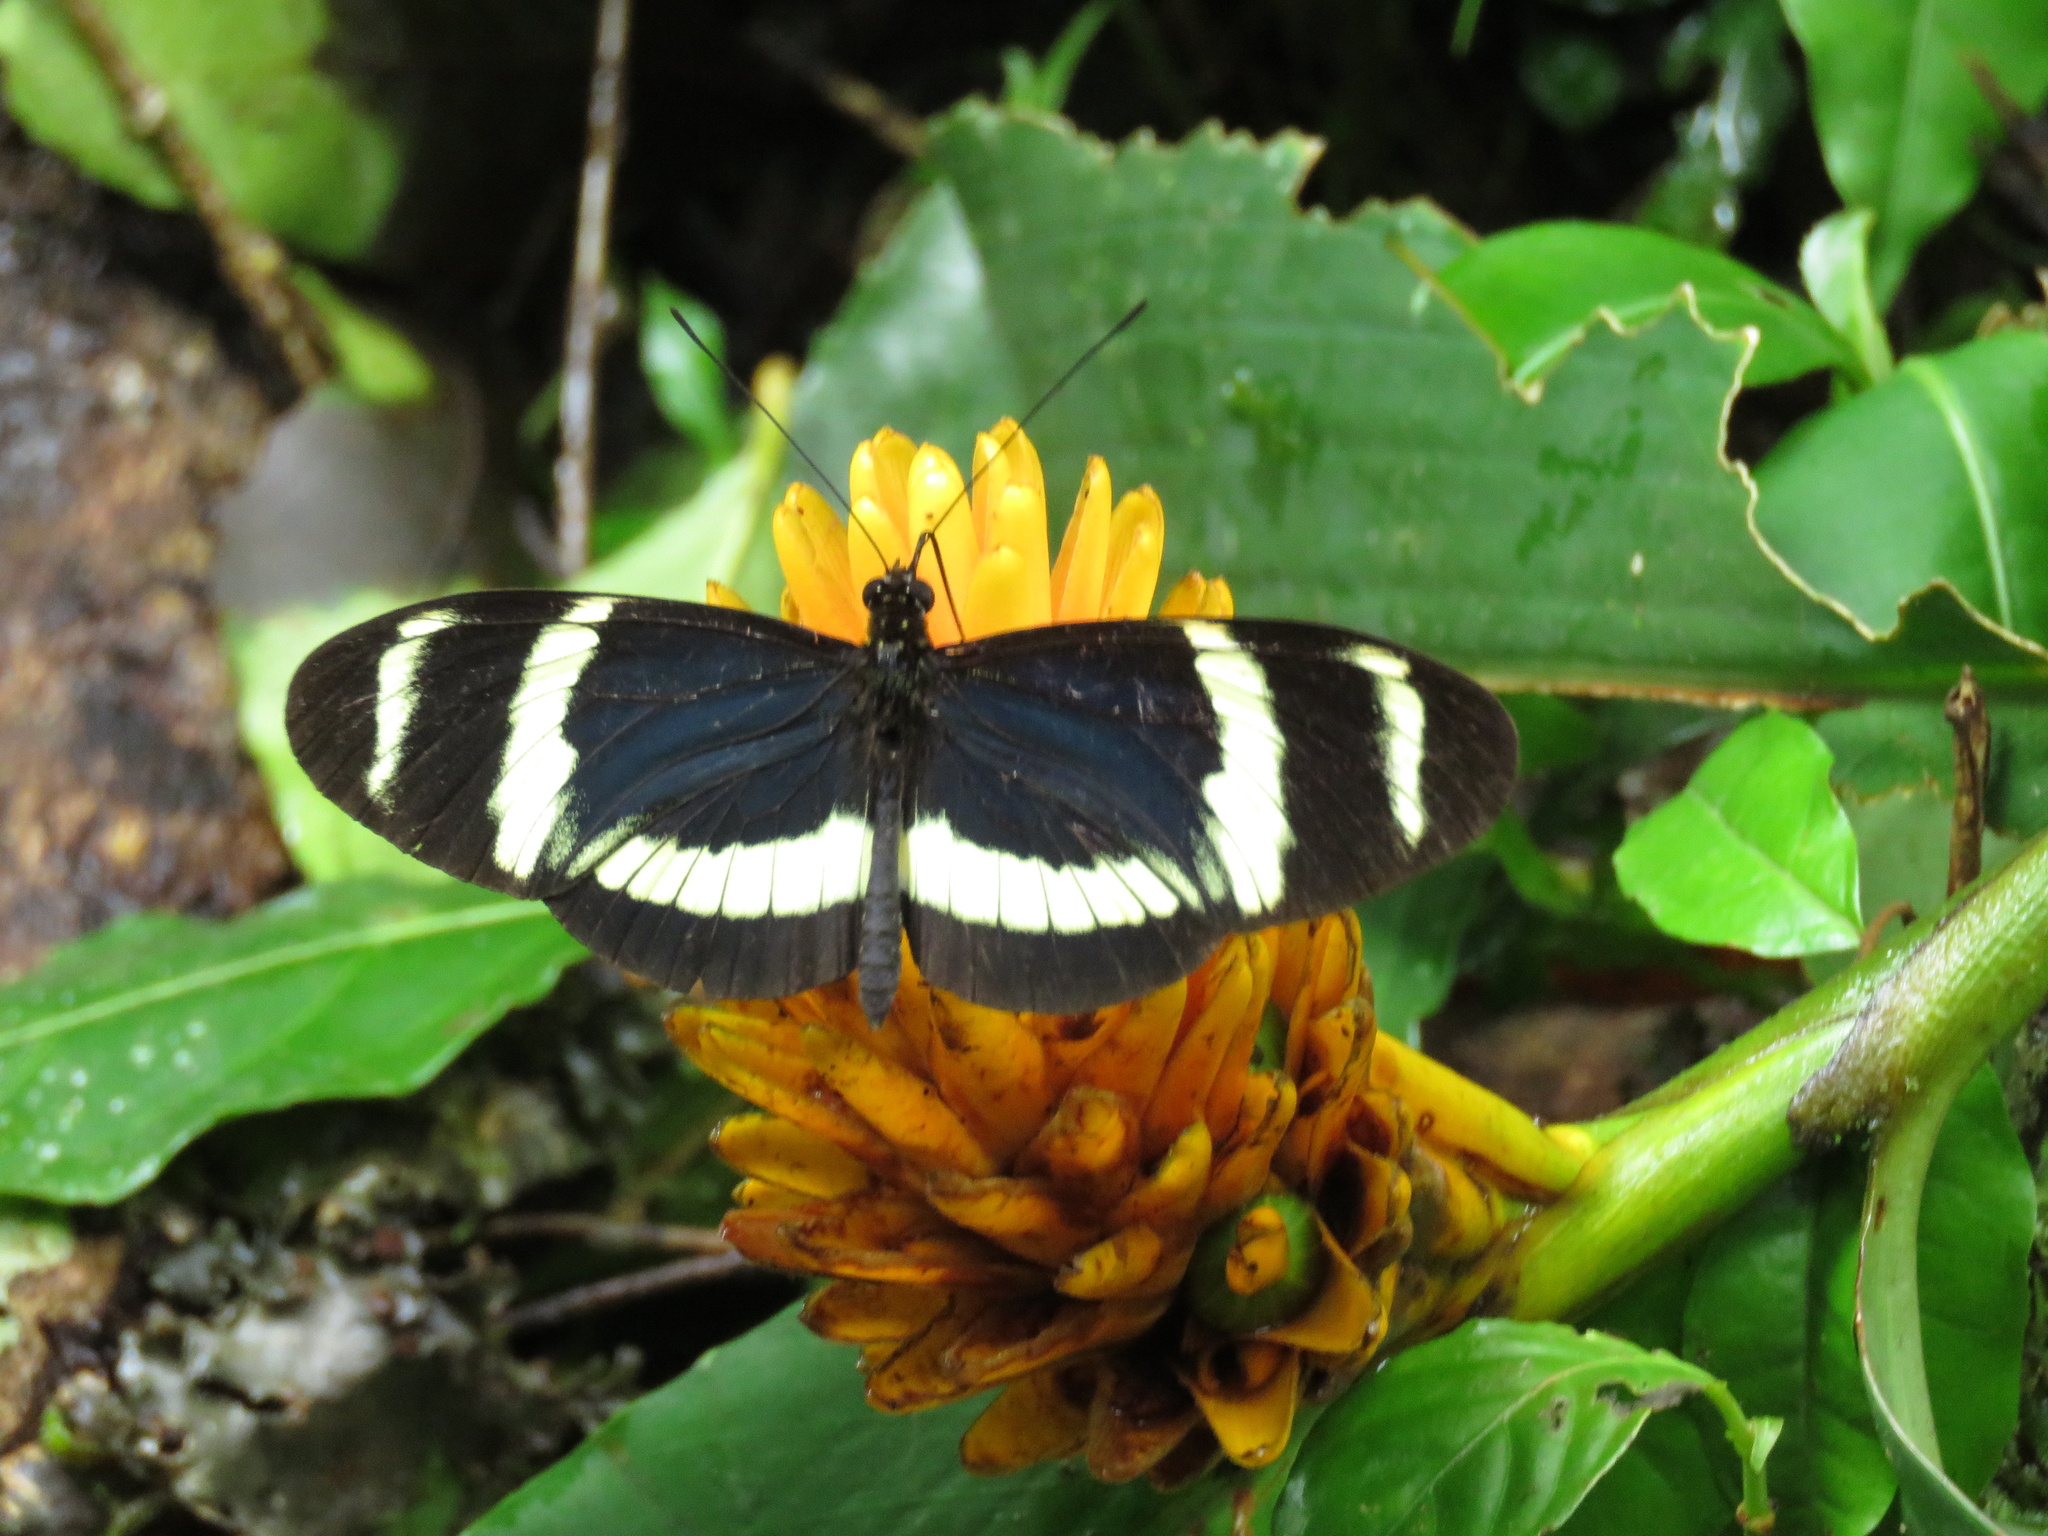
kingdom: Animalia
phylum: Arthropoda
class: Insecta
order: Lepidoptera
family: Nymphalidae
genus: Heliconius
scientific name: Heliconius pachinus
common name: Pachinus longwing
